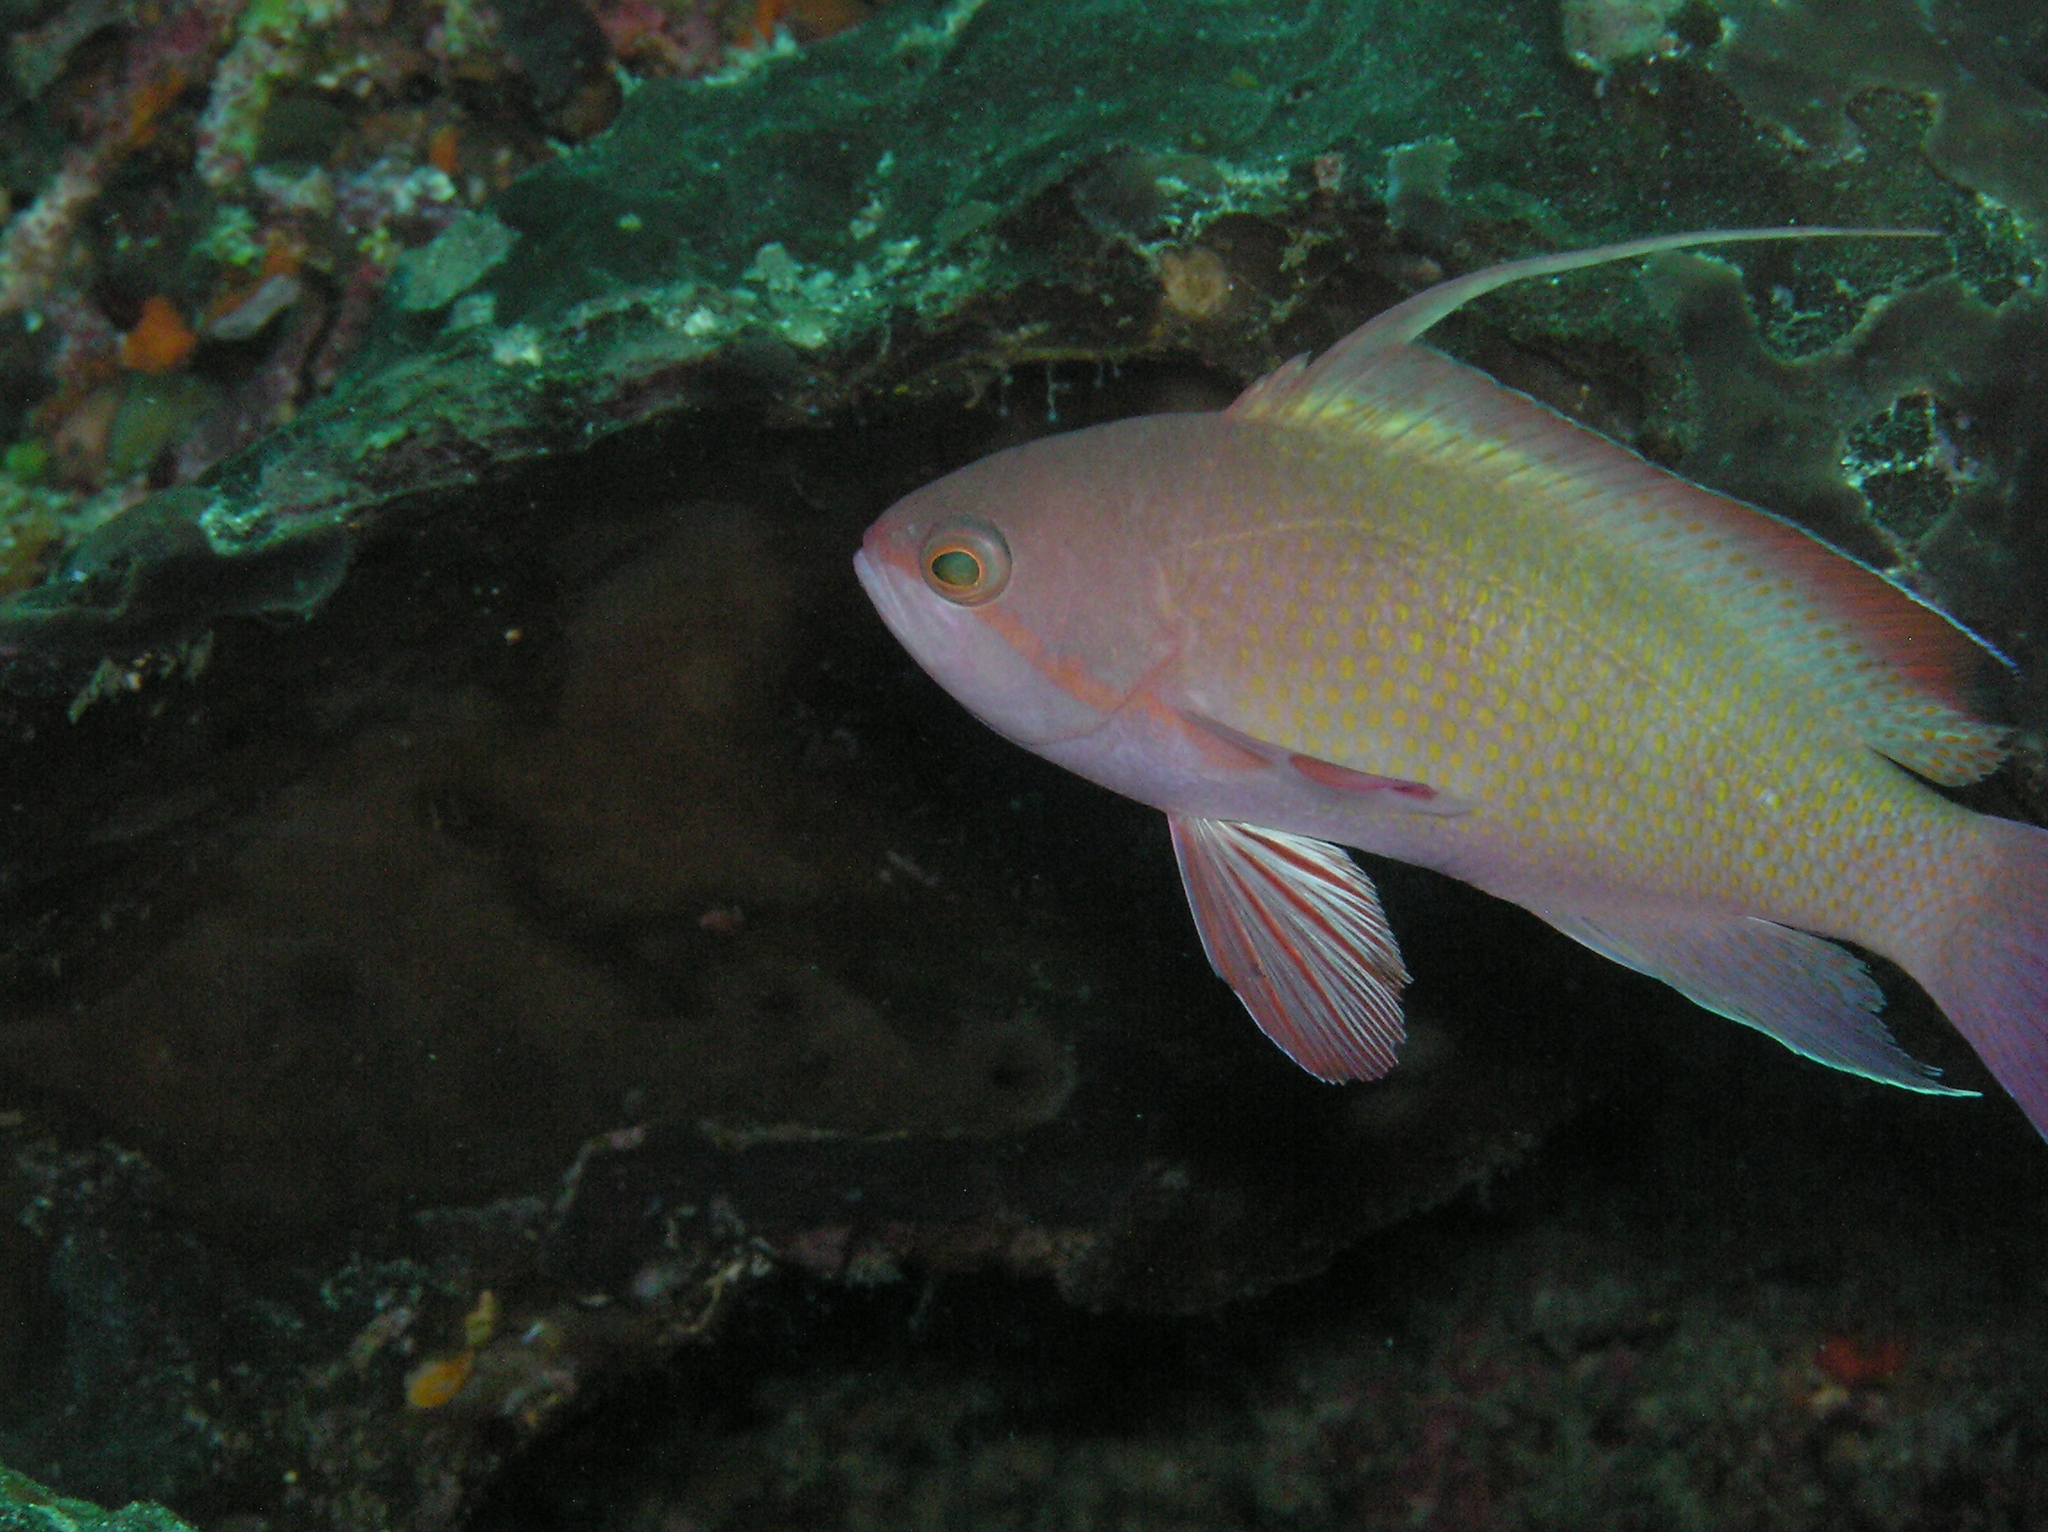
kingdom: Animalia
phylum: Chordata
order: Perciformes
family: Serranidae
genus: Pseudanthias
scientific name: Pseudanthias squamipinnis
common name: Scalefin anthias
